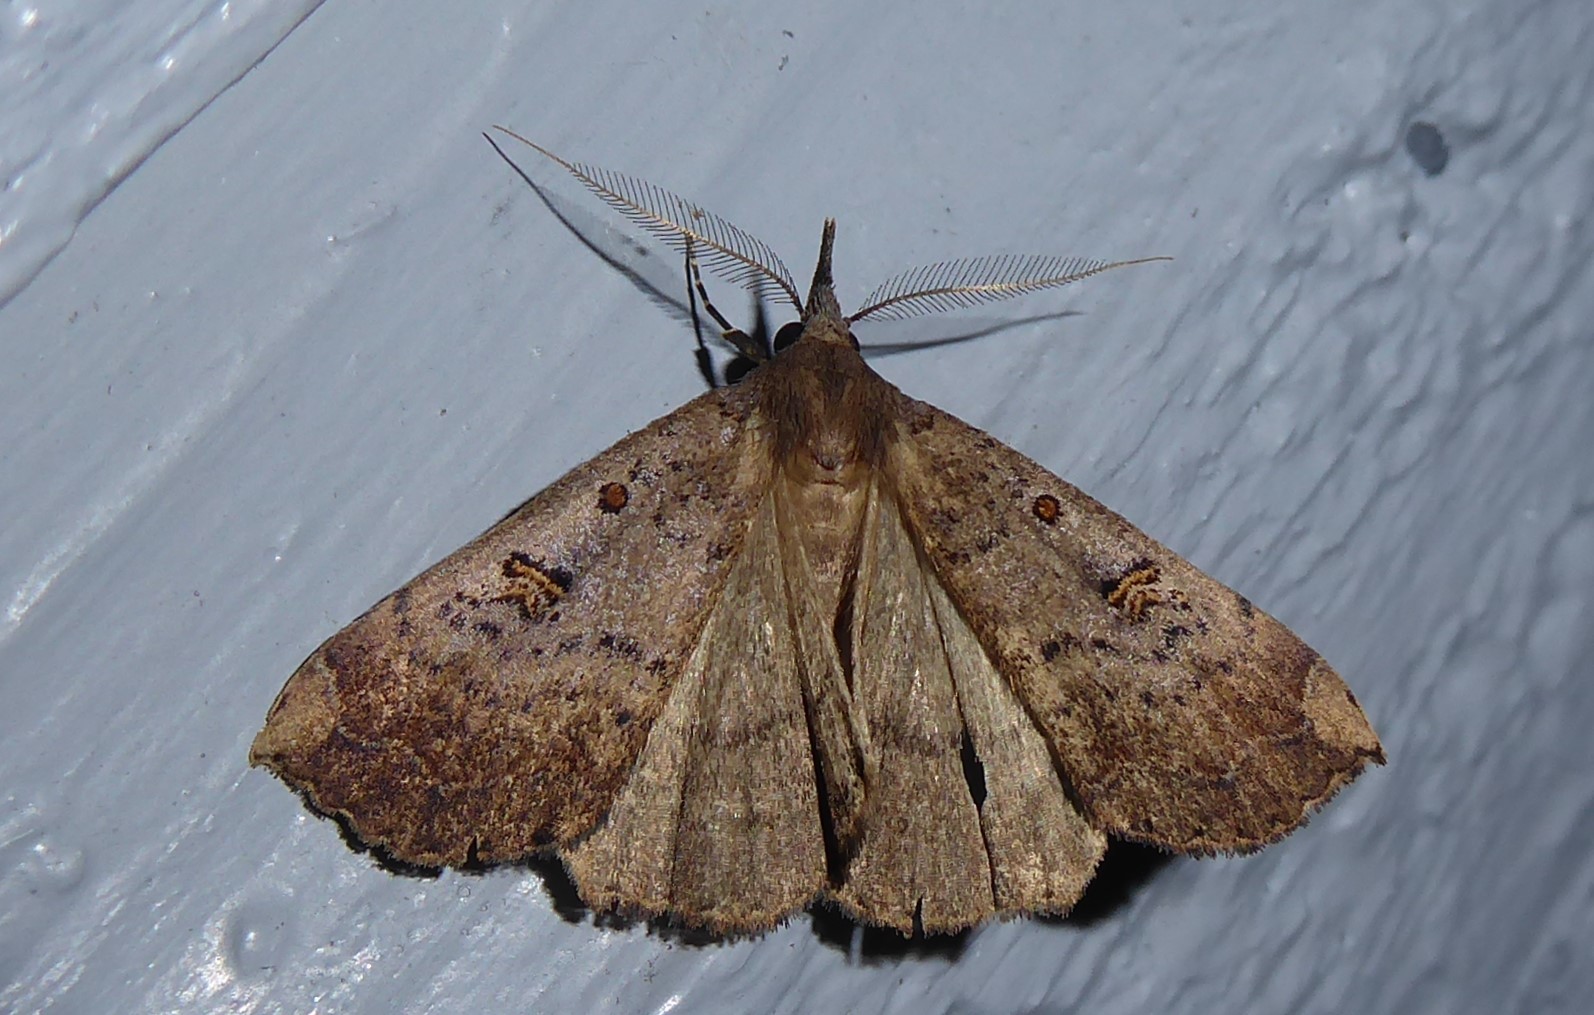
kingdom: Animalia
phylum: Arthropoda
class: Insecta
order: Lepidoptera
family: Erebidae
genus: Rhapsa
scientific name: Rhapsa scotosialis
